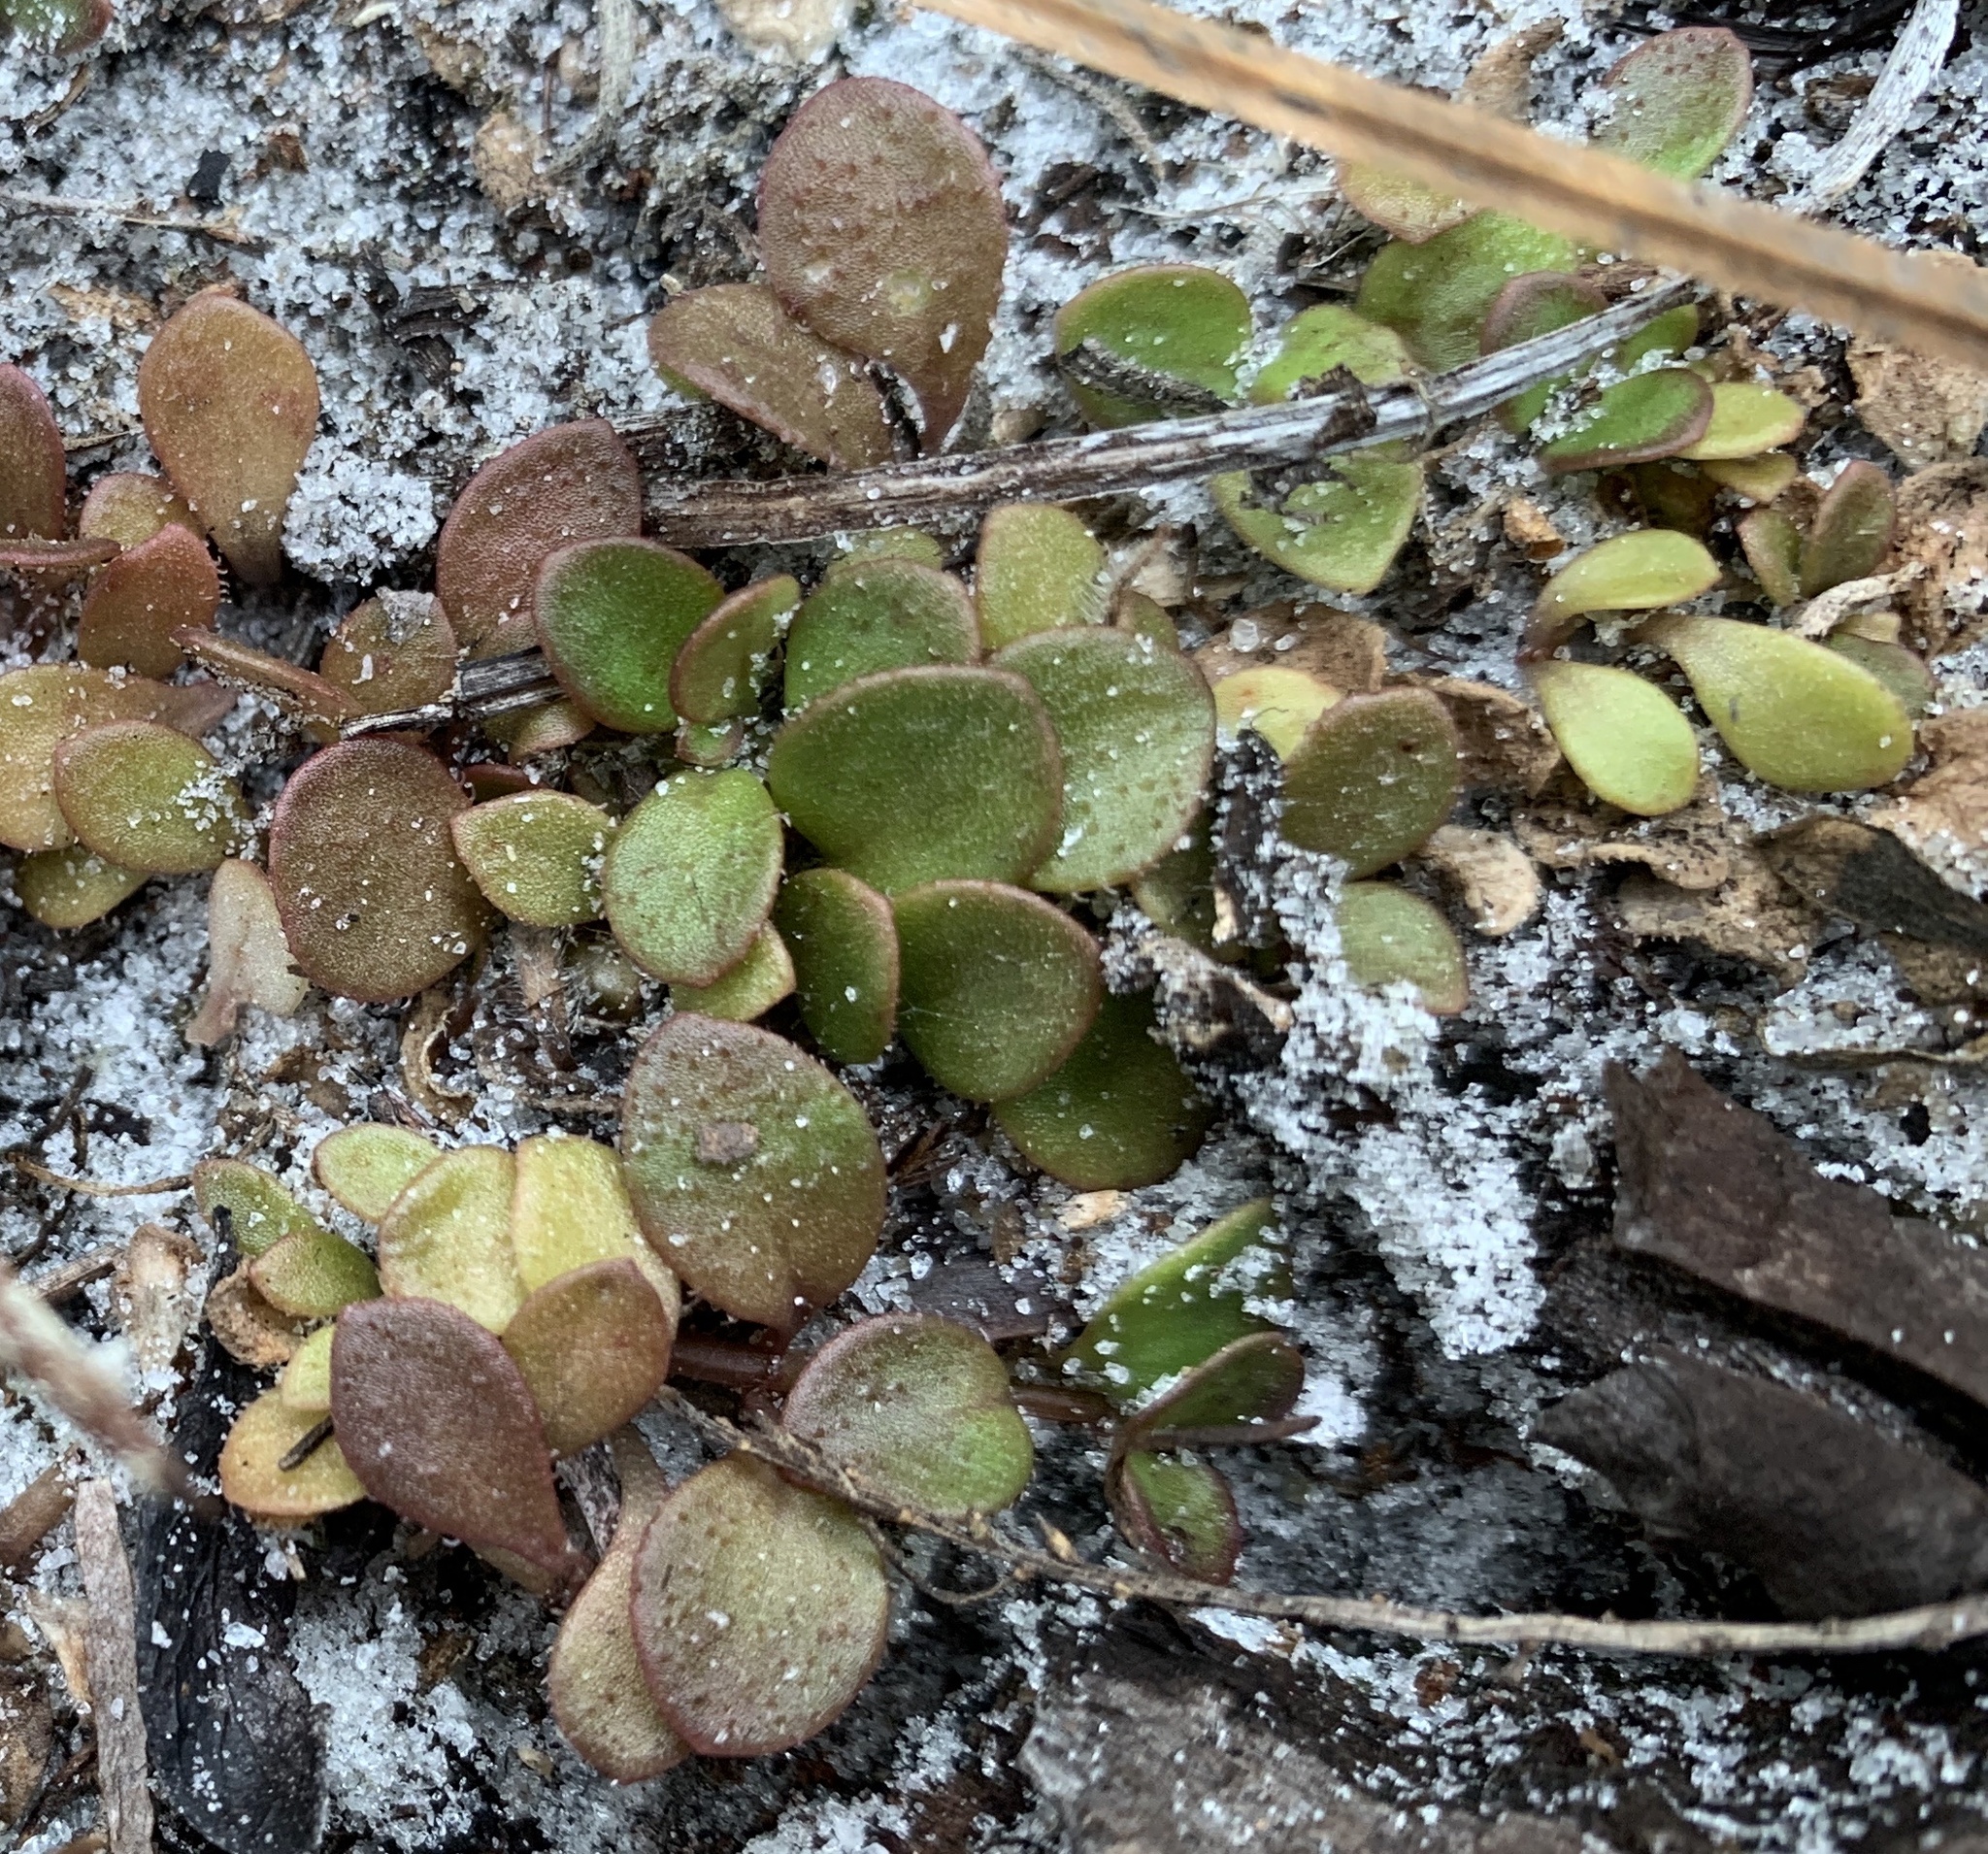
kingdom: Plantae
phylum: Tracheophyta
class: Magnoliopsida
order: Gentianales
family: Rubiaceae
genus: Houstonia
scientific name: Houstonia procumbens
